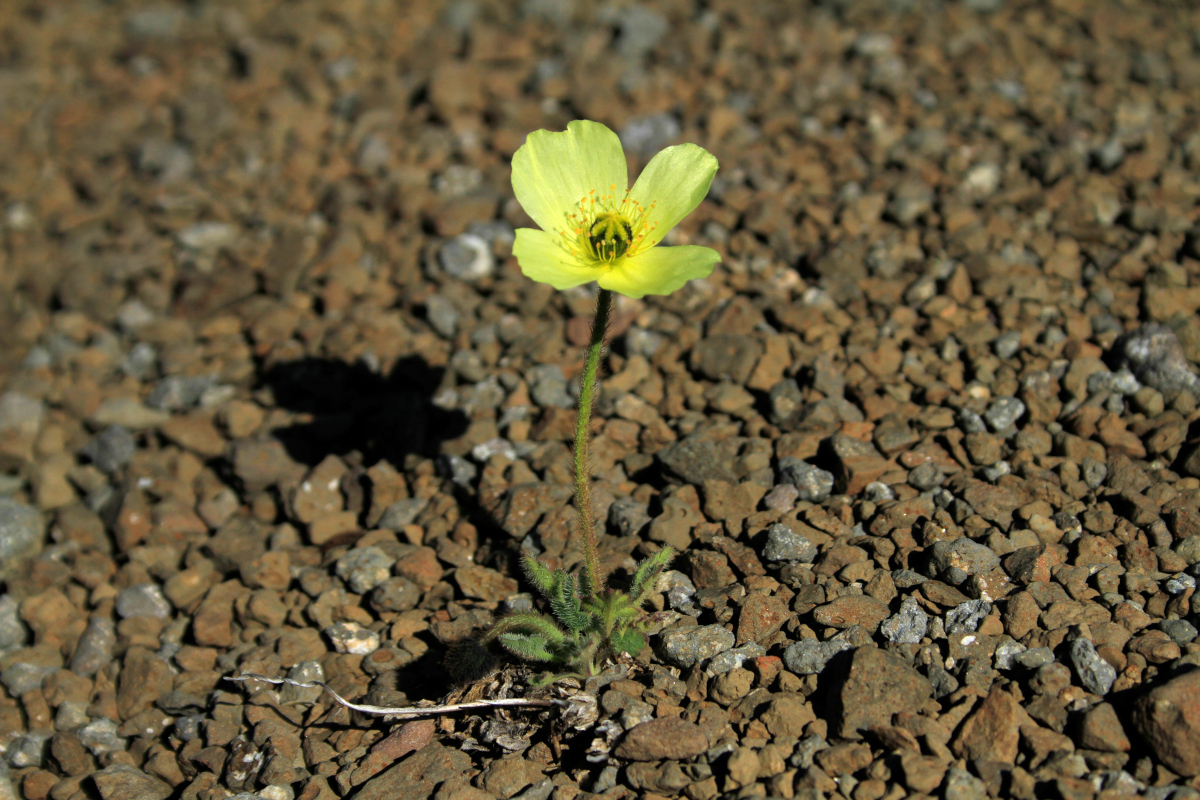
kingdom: Plantae
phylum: Tracheophyta
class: Magnoliopsida
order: Ranunculales
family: Papaveraceae
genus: Papaver
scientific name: Papaver radicatum
